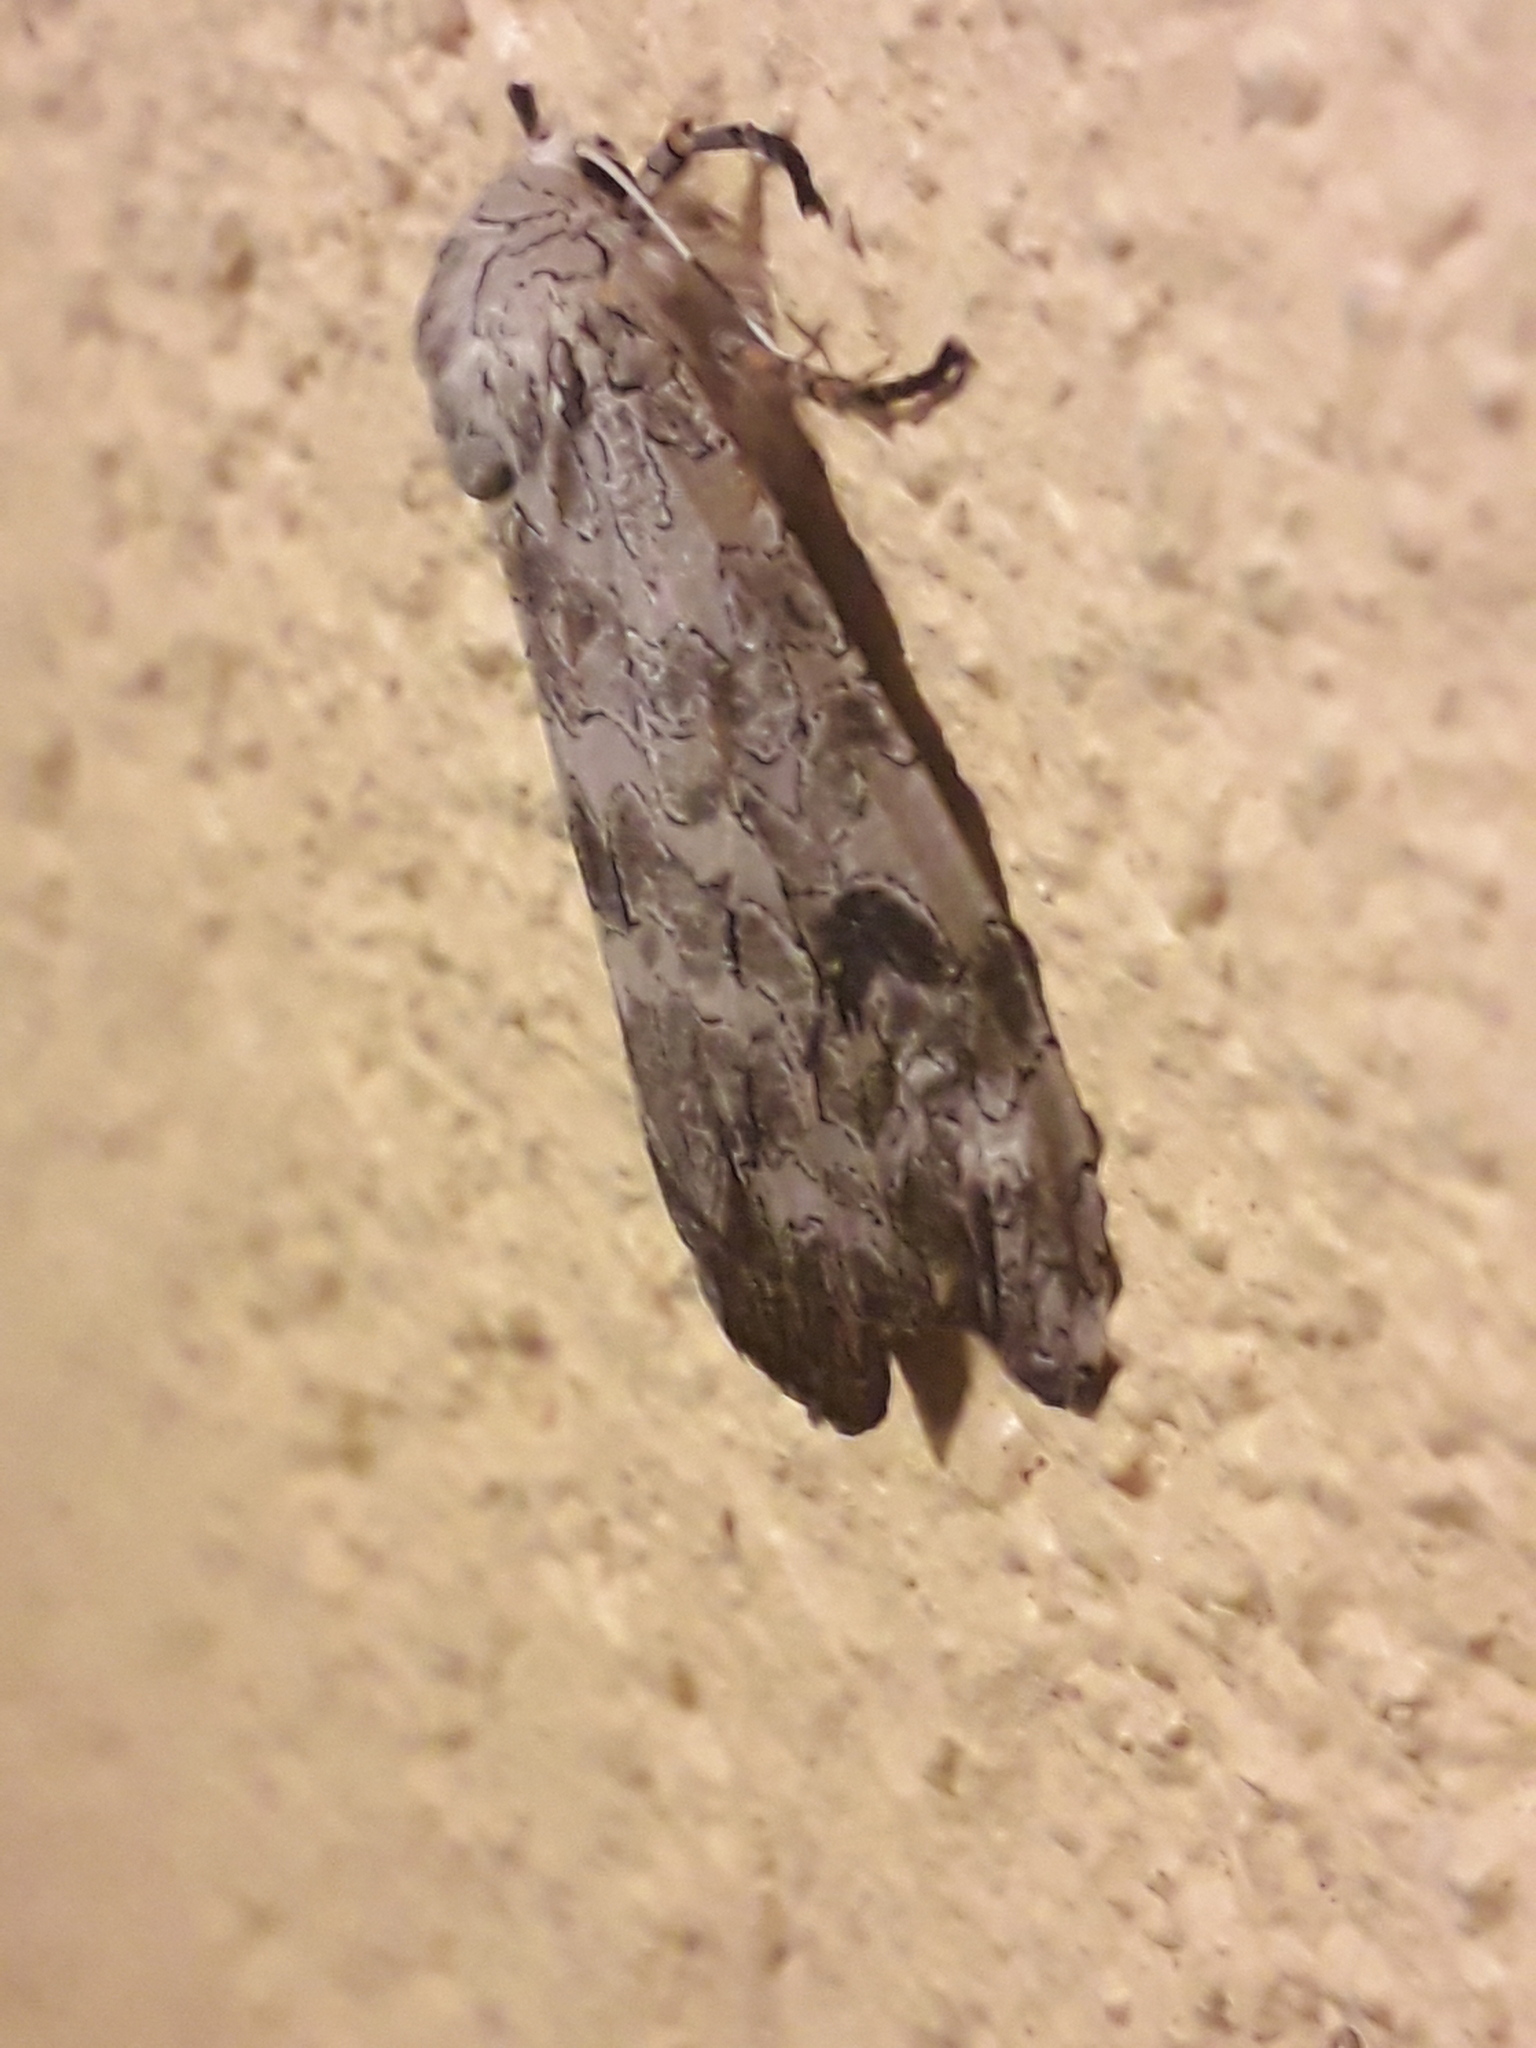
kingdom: Animalia
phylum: Arthropoda
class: Insecta
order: Lepidoptera
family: Erebidae
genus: Hypercompe
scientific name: Hypercompe suffusa
